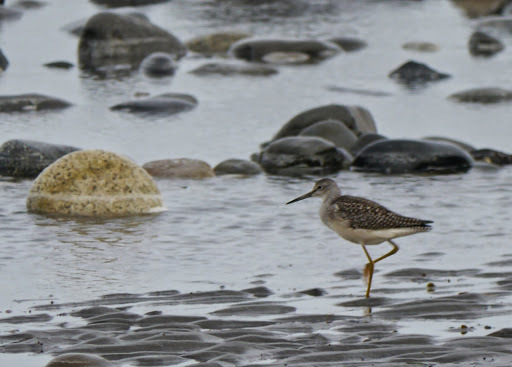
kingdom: Animalia
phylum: Chordata
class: Aves
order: Charadriiformes
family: Scolopacidae
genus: Tringa
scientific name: Tringa melanoleuca
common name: Greater yellowlegs
